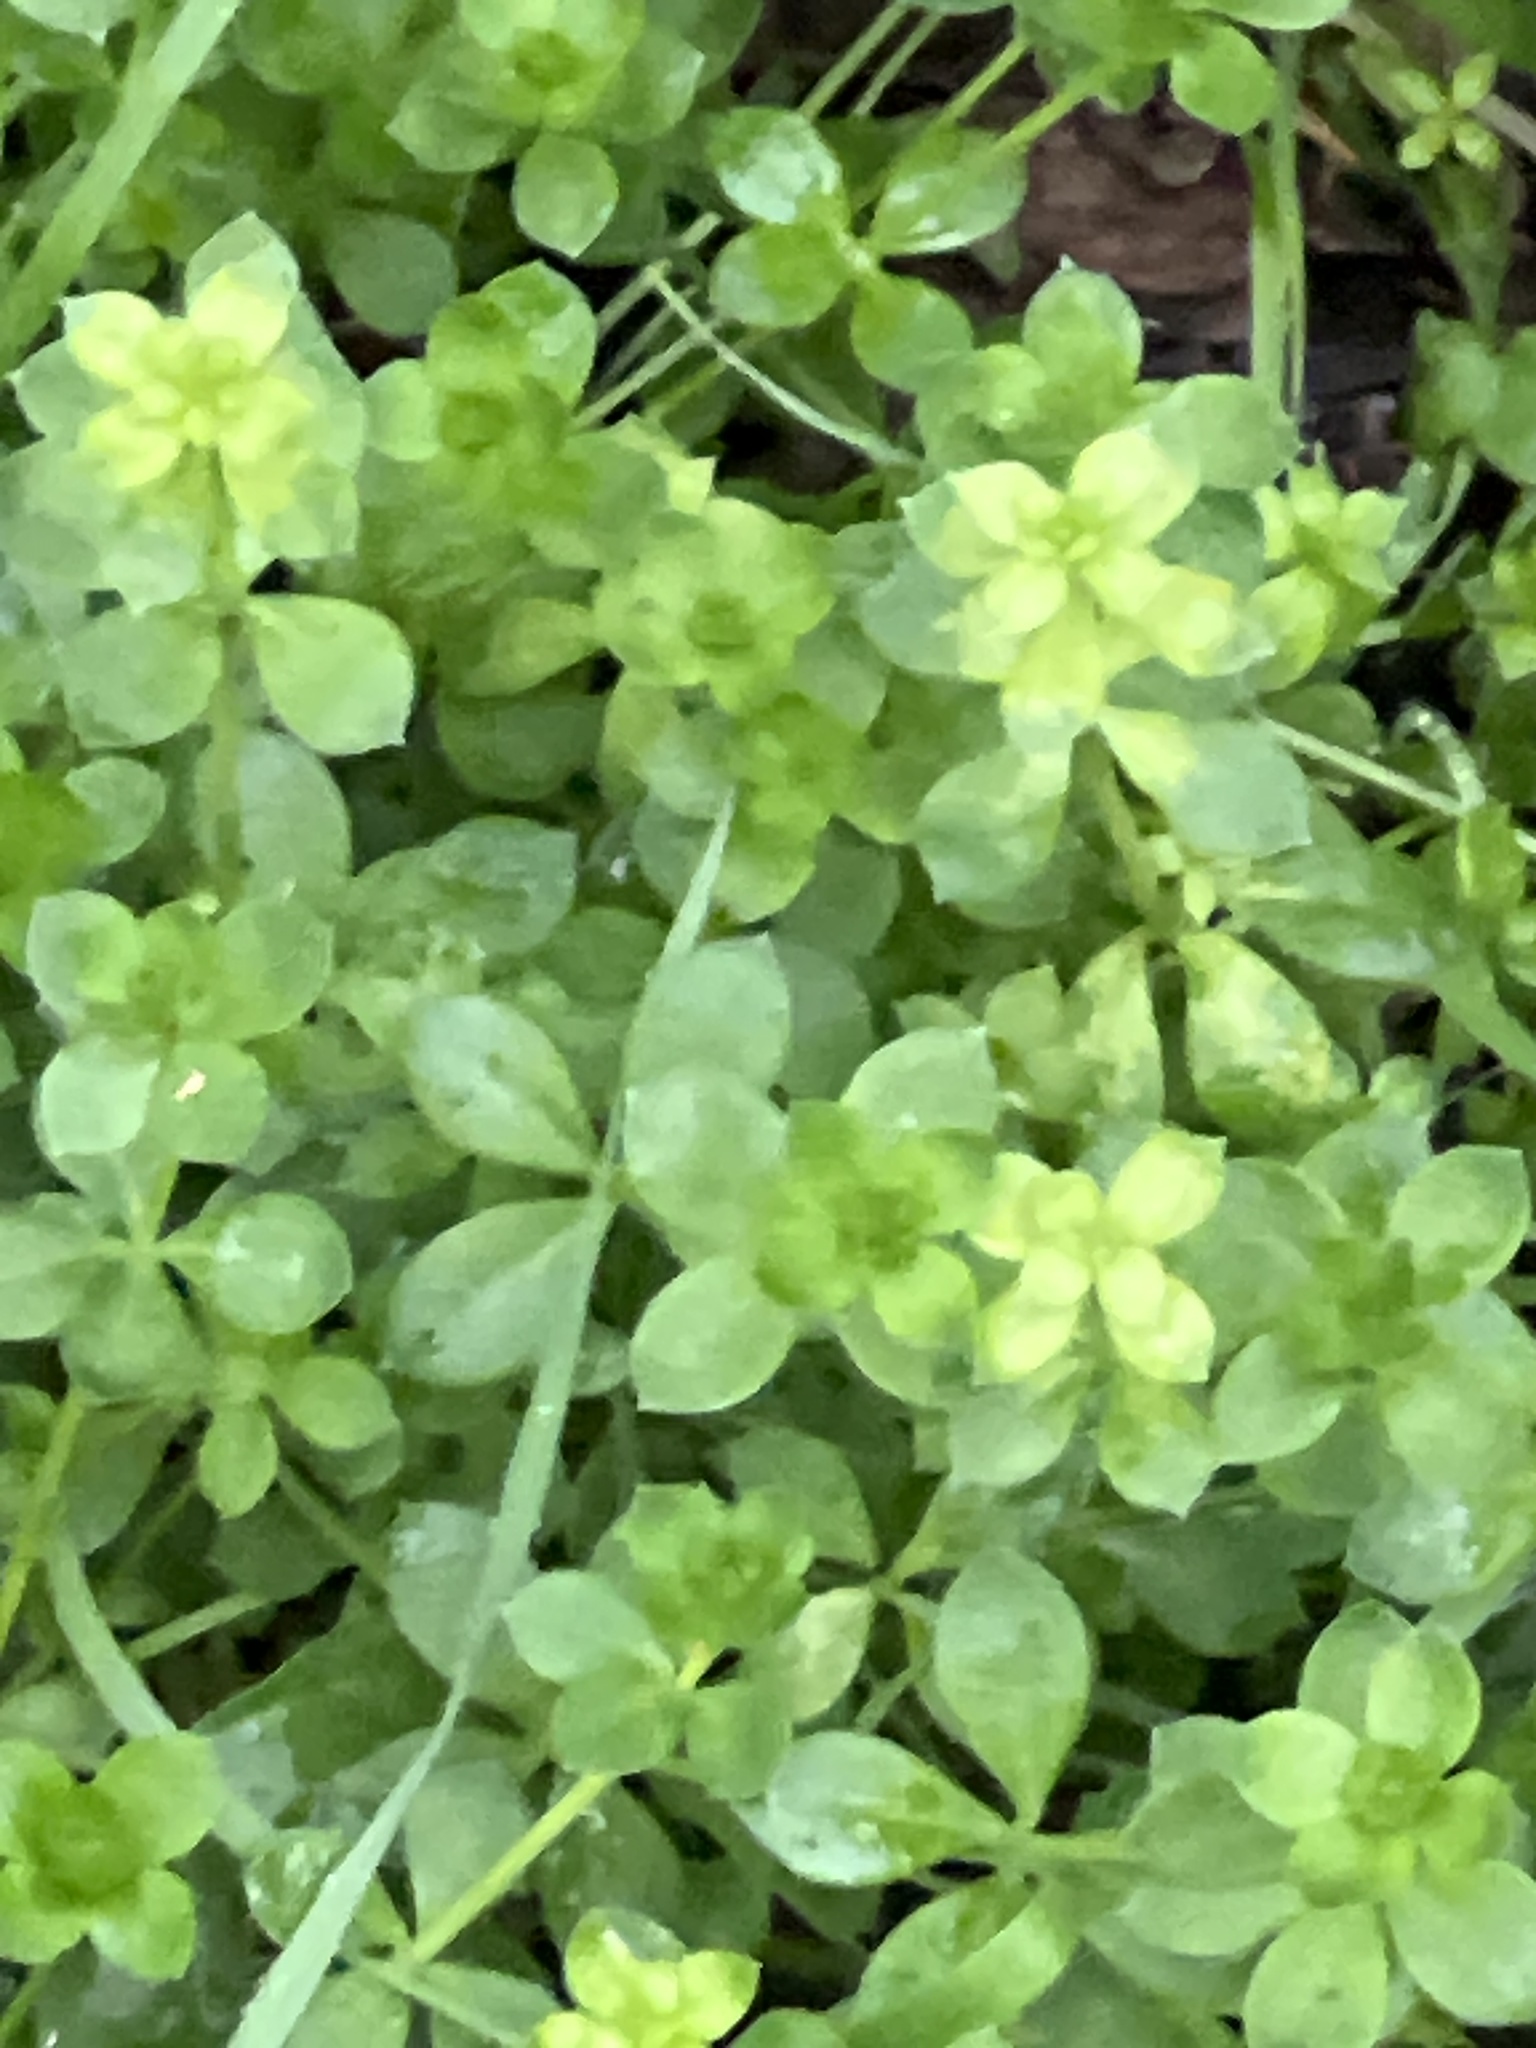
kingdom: Plantae
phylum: Tracheophyta
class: Magnoliopsida
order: Caryophyllales
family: Caryophyllaceae
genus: Polycarpon
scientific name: Polycarpon tetraphyllum
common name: Four-leaved all-seed
